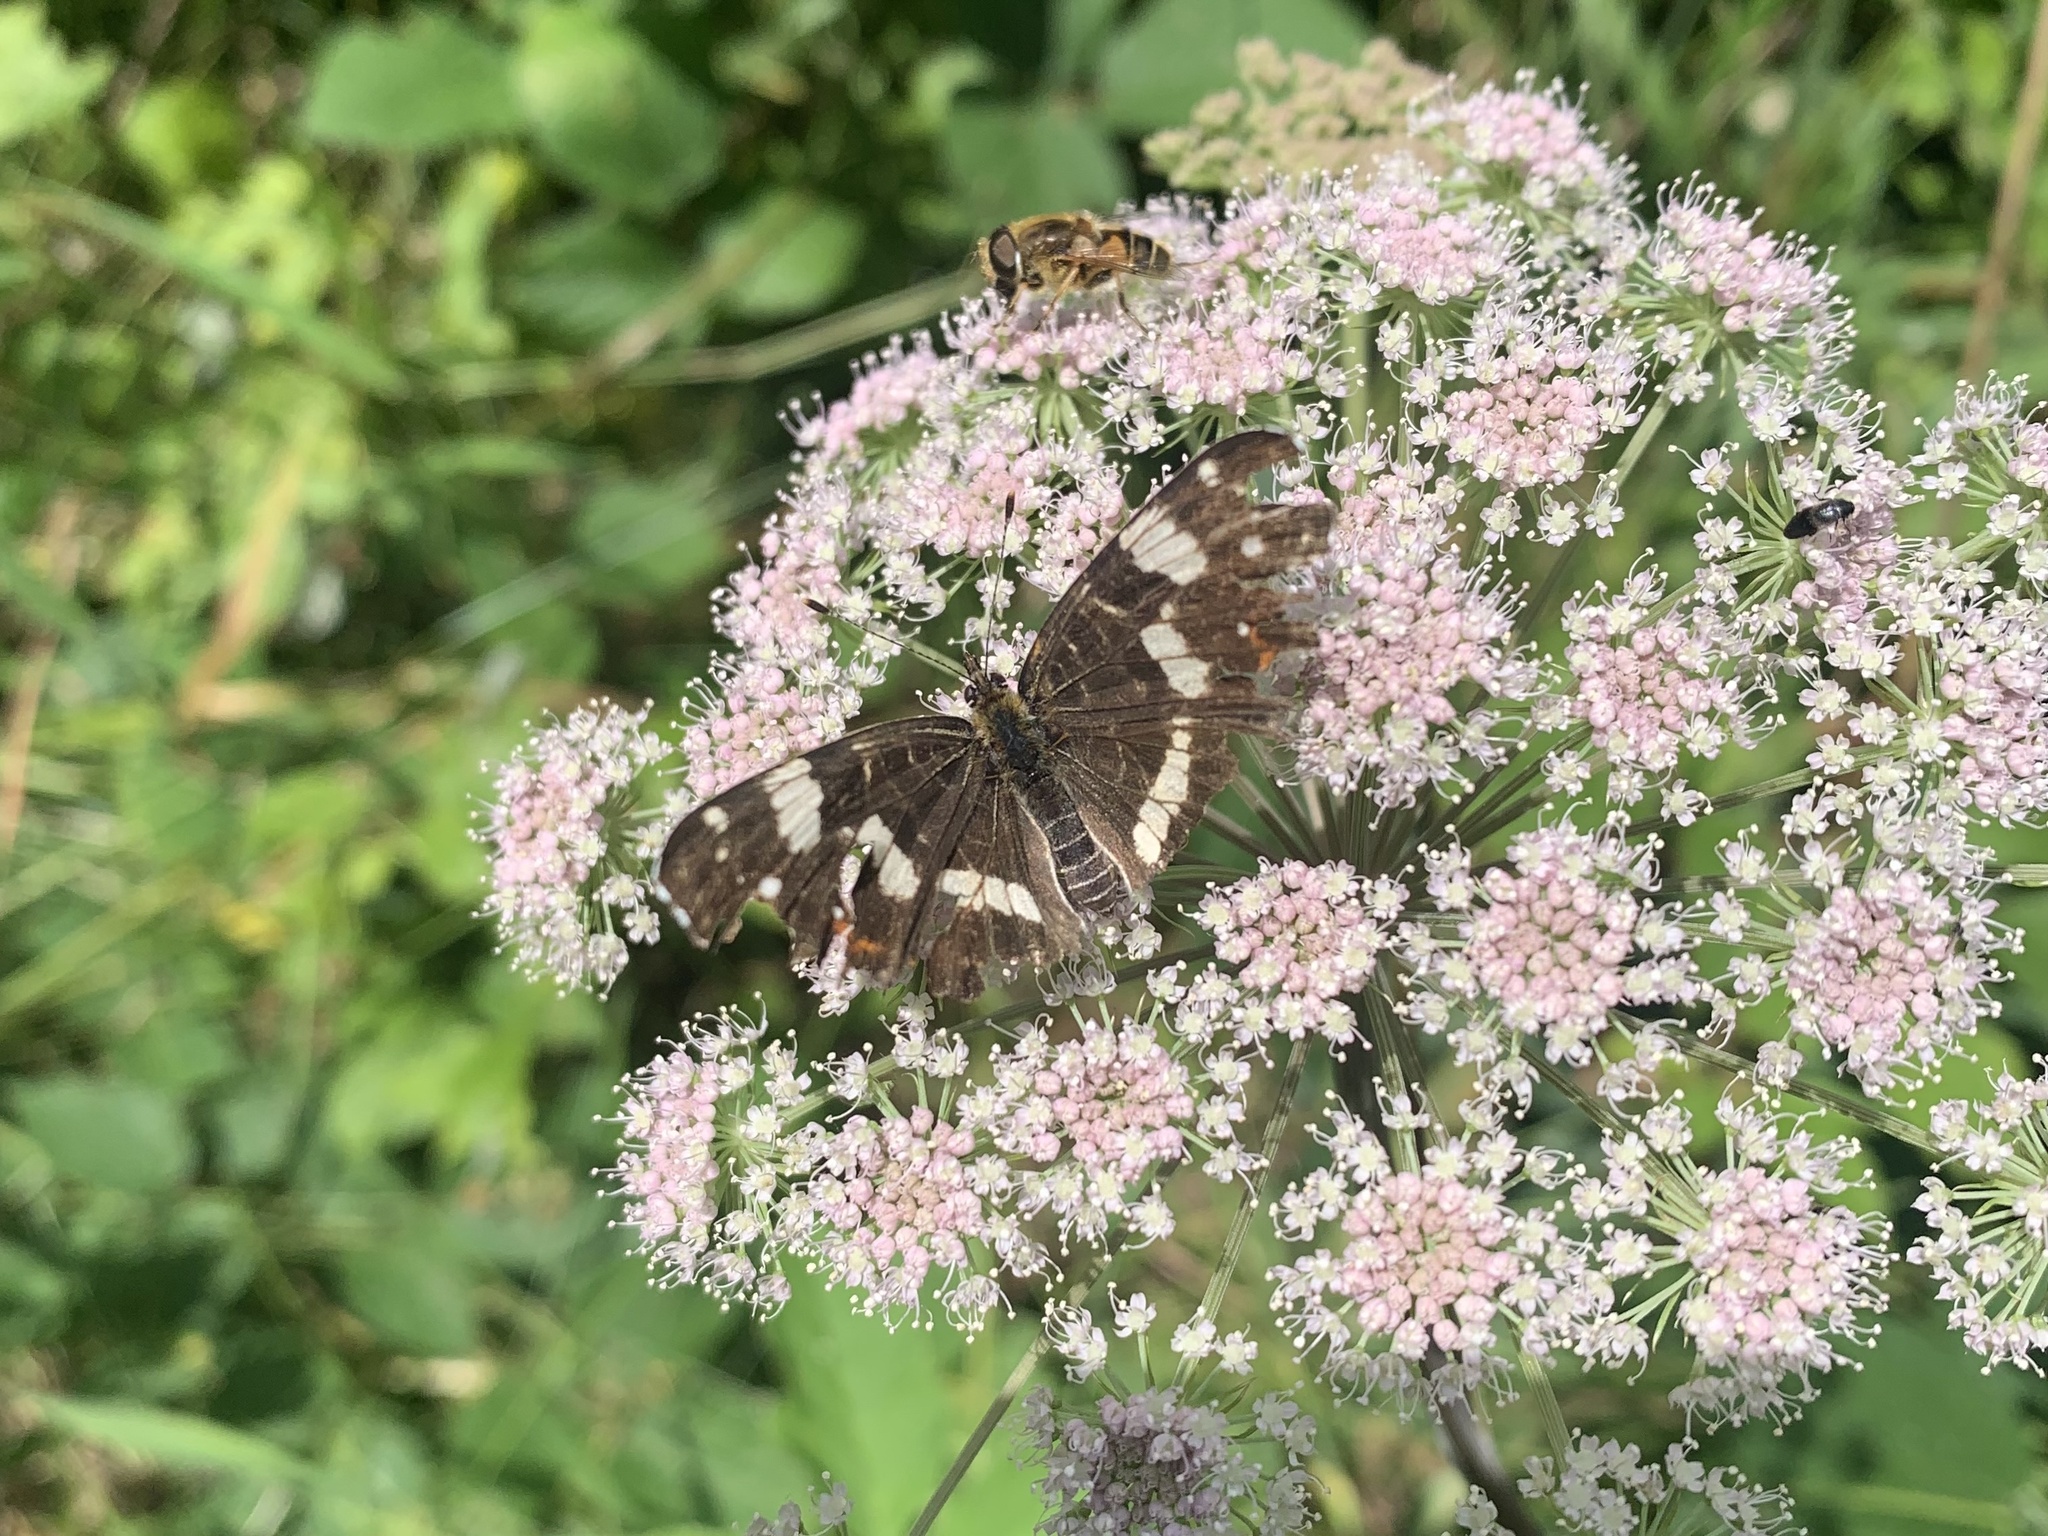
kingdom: Animalia
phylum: Arthropoda
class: Insecta
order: Lepidoptera
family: Nymphalidae
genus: Araschnia
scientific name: Araschnia levana
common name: Map butterfly
